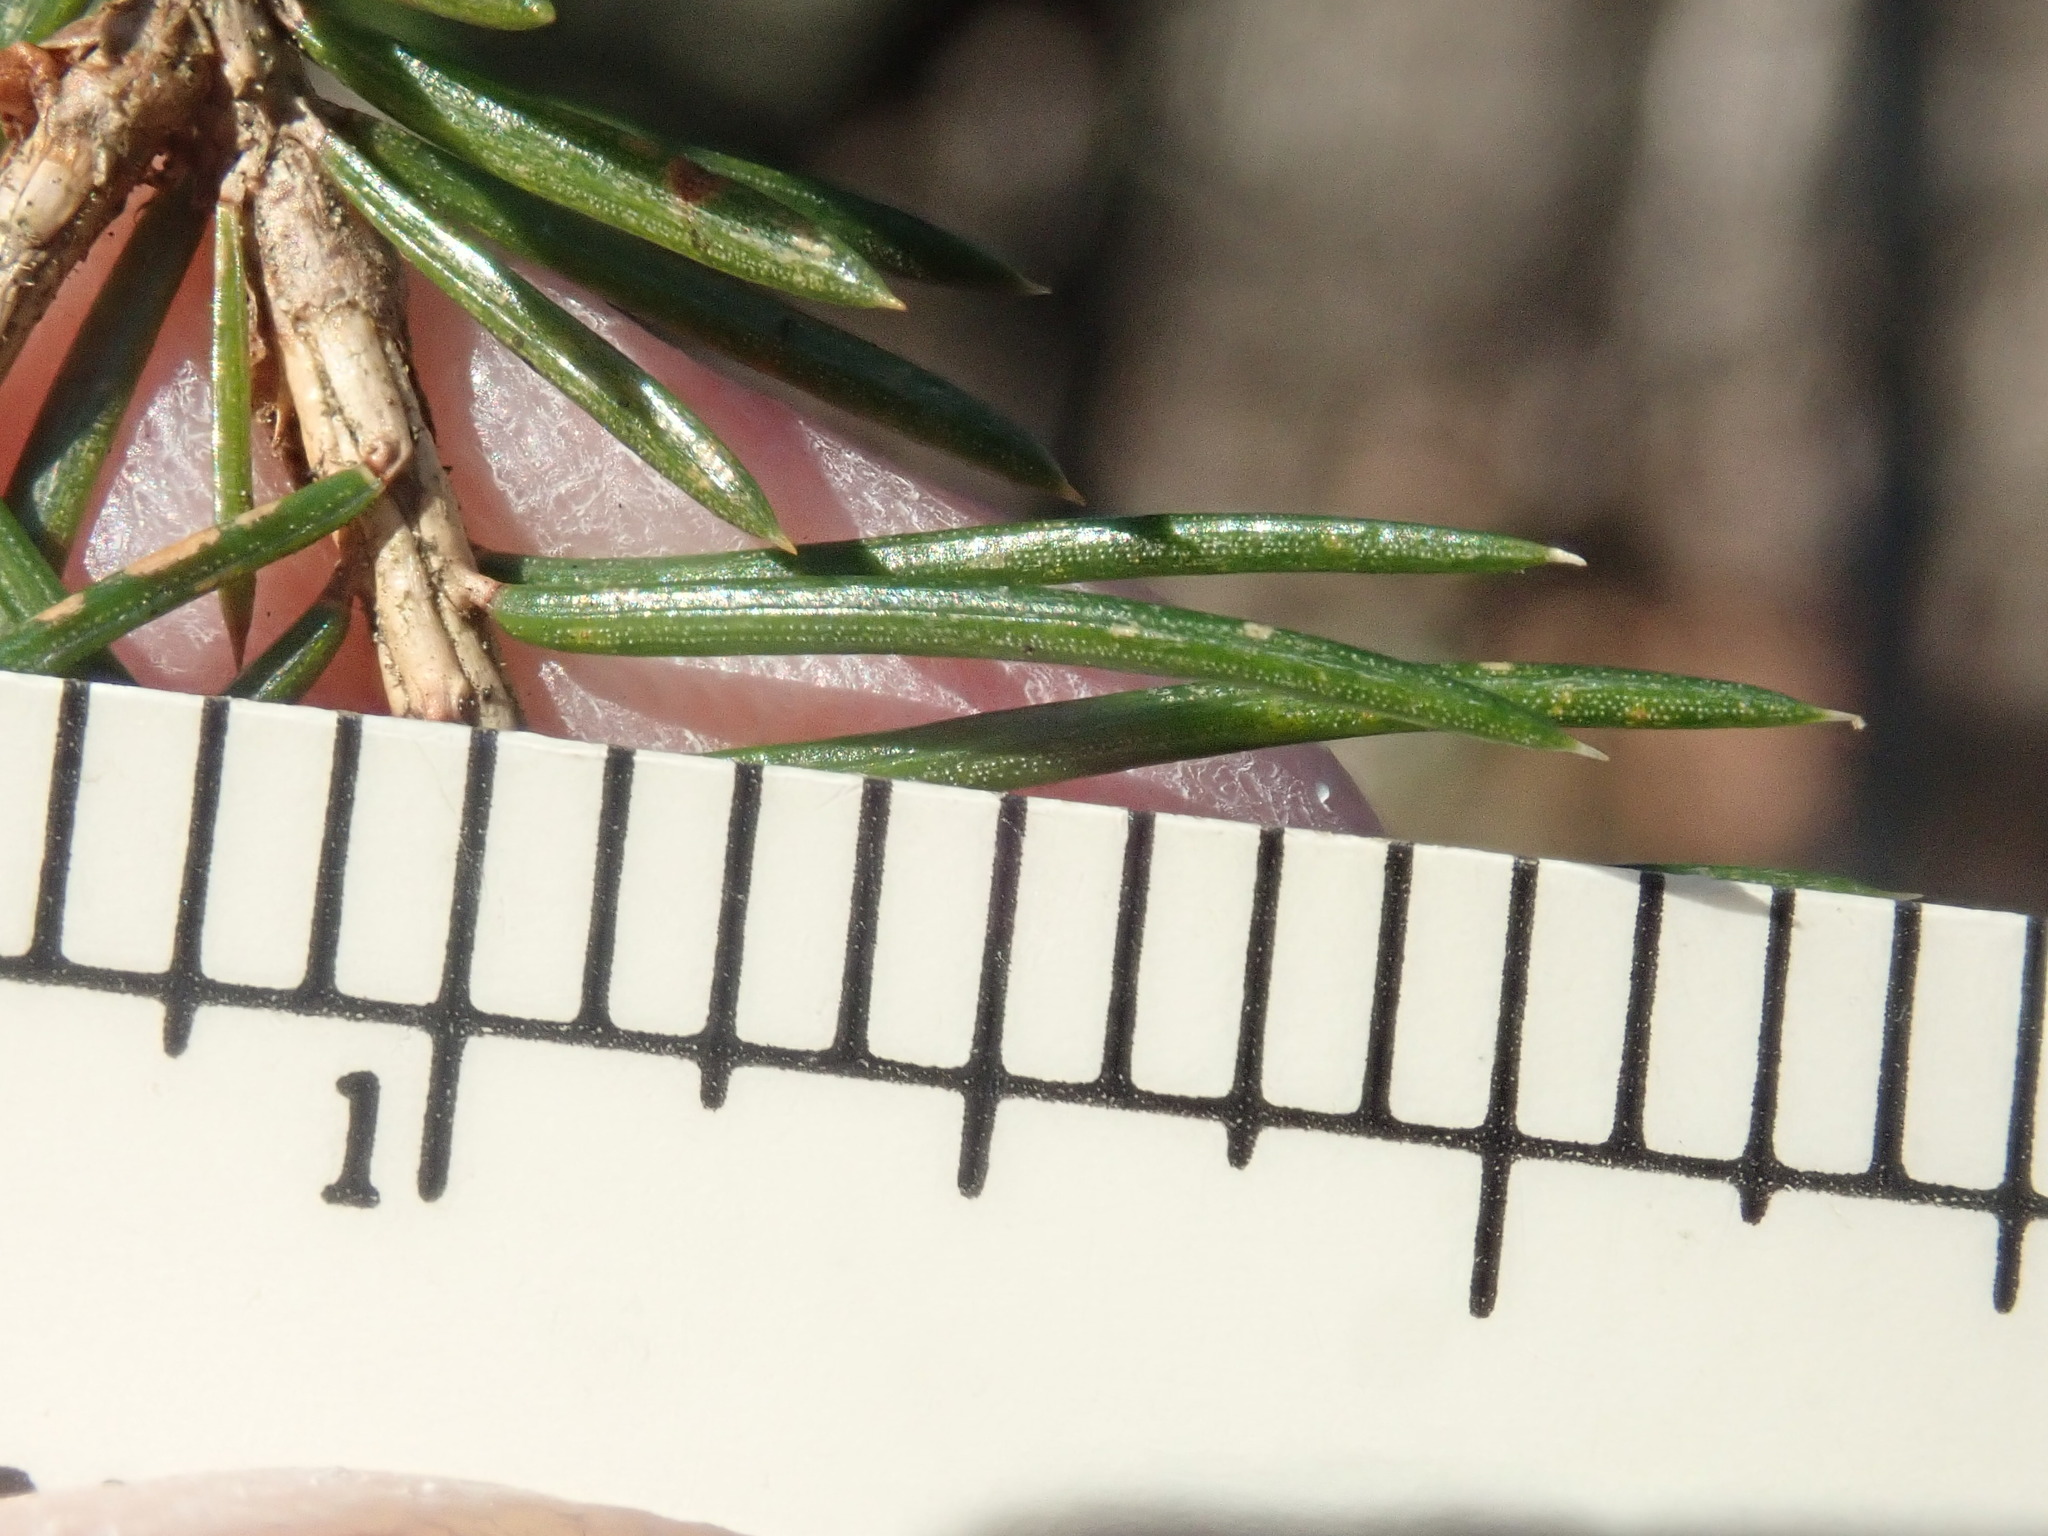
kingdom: Plantae
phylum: Tracheophyta
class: Pinopsida
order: Pinales
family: Pinaceae
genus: Picea
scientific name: Picea abies
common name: Norway spruce
